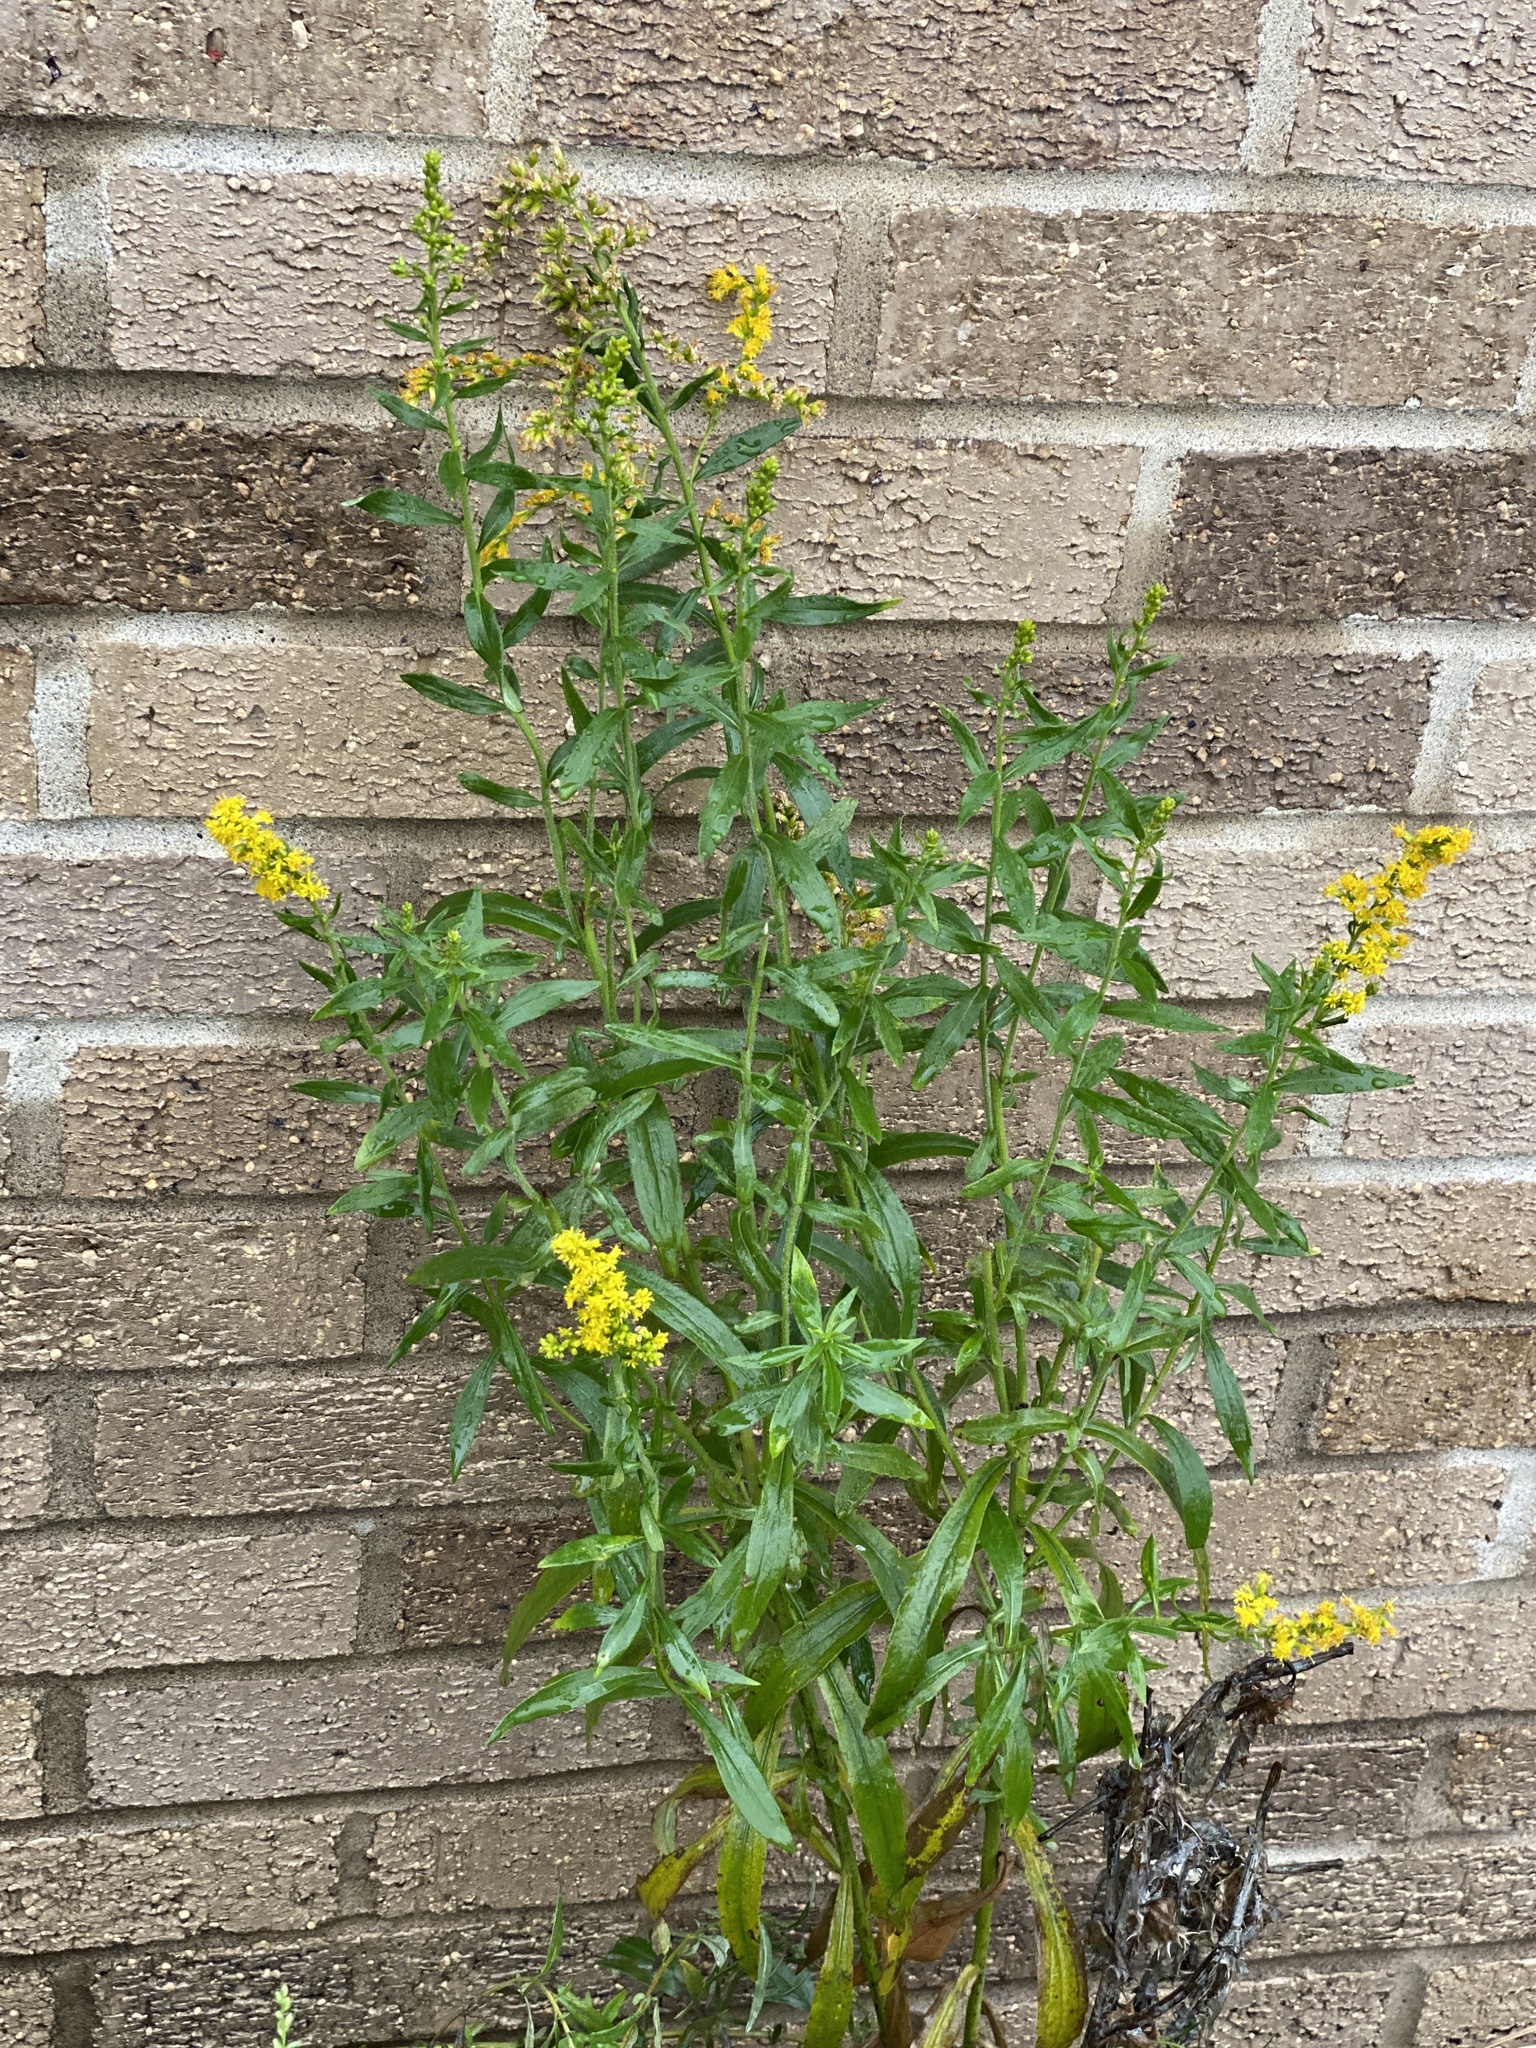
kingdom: Plantae
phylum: Tracheophyta
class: Magnoliopsida
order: Asterales
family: Asteraceae
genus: Solidago
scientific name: Solidago altissima
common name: Late goldenrod
